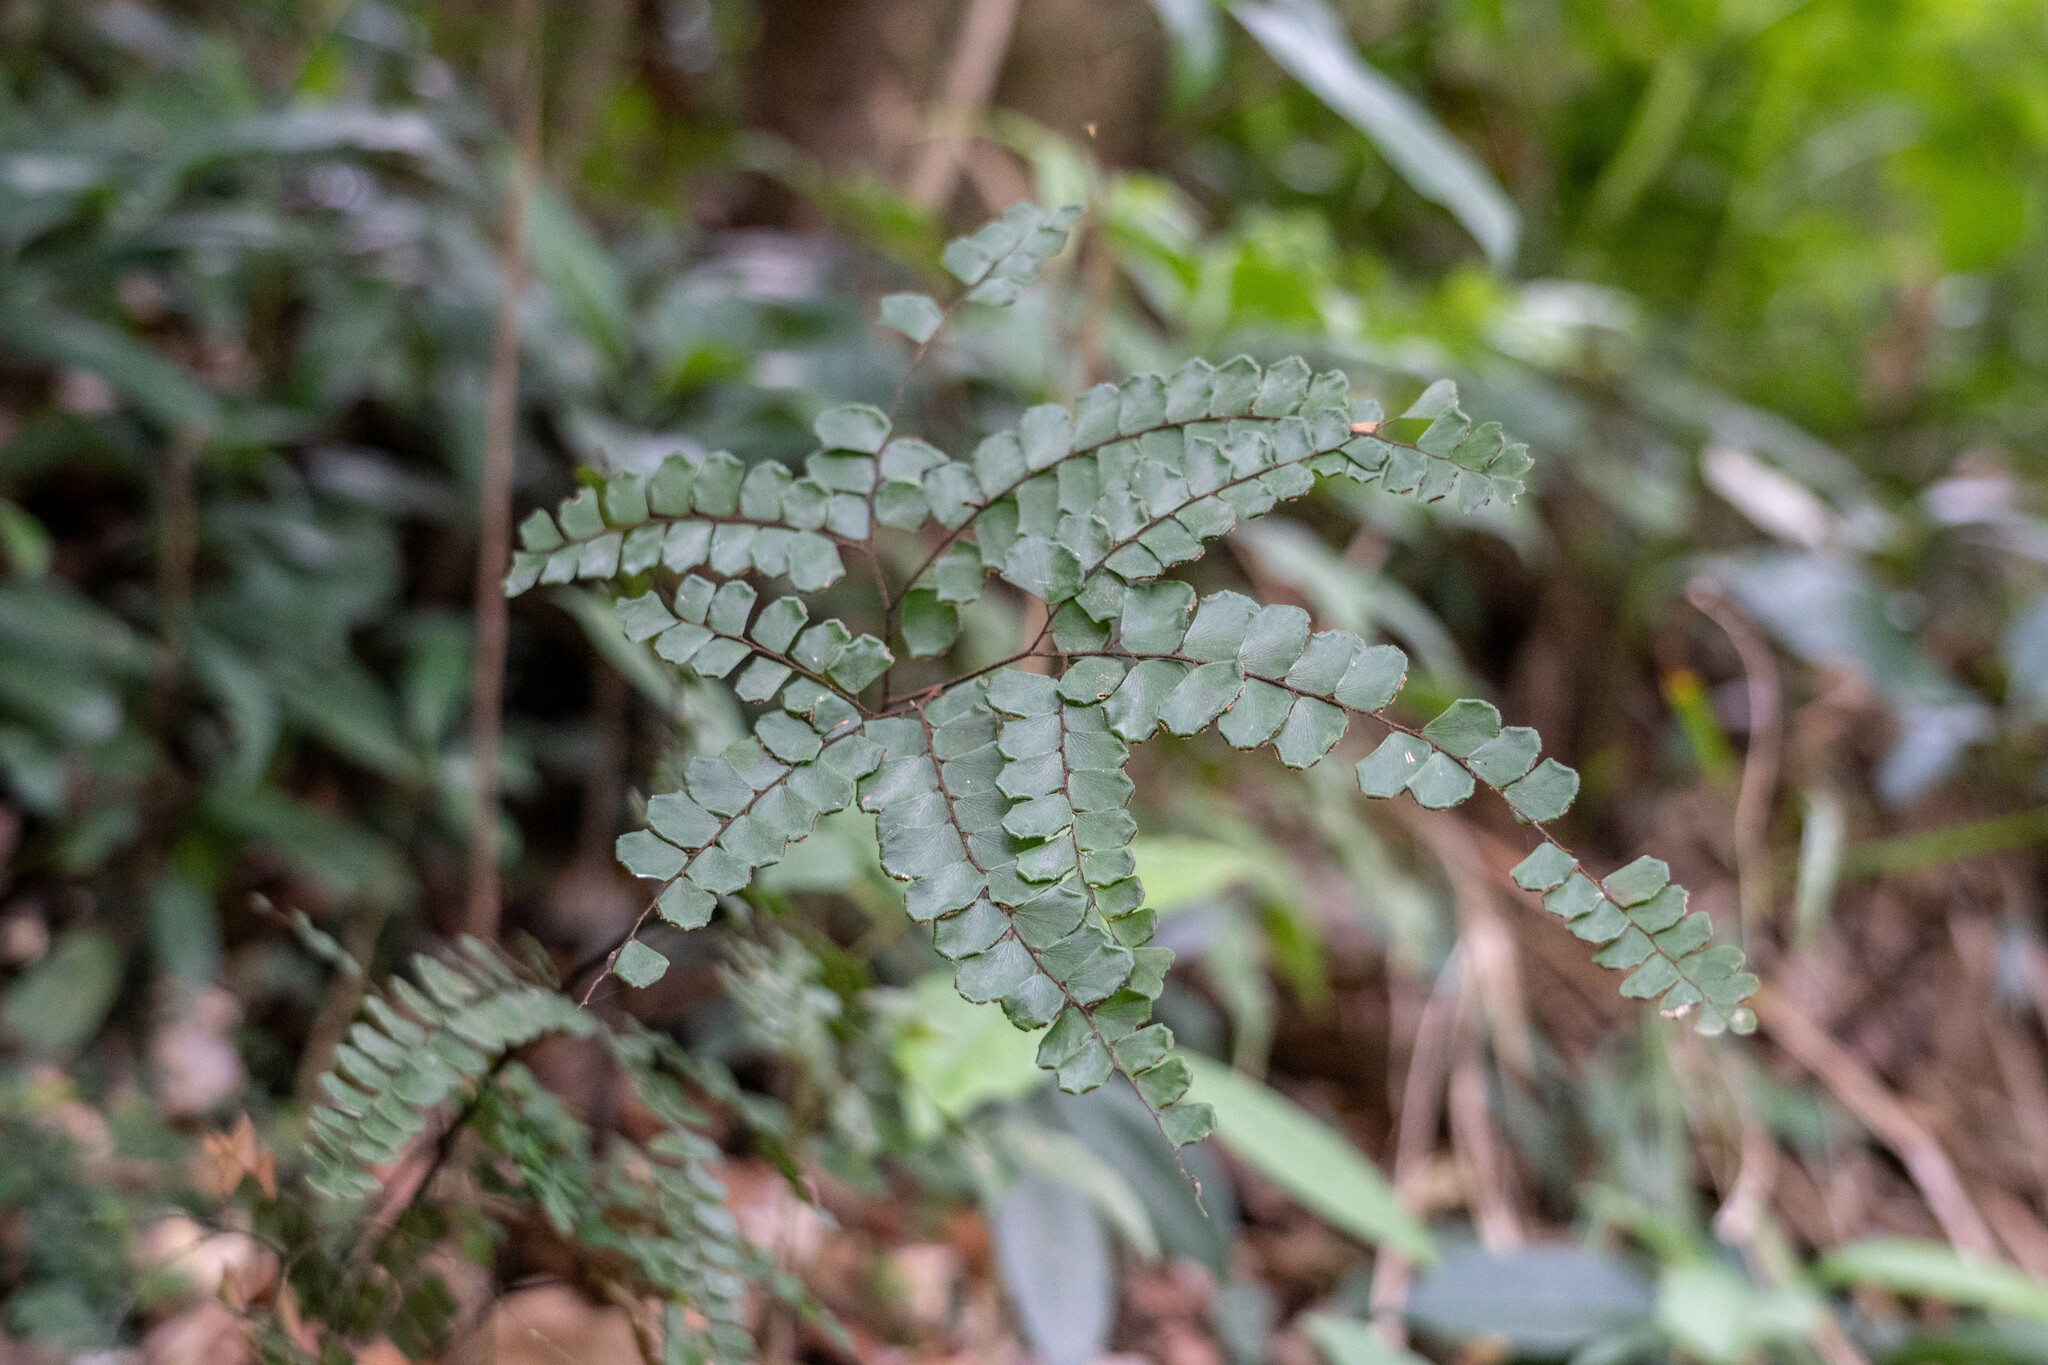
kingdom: Plantae
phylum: Tracheophyta
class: Polypodiopsida
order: Polypodiales
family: Pteridaceae
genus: Adiantum
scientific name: Adiantum flabellulatum
